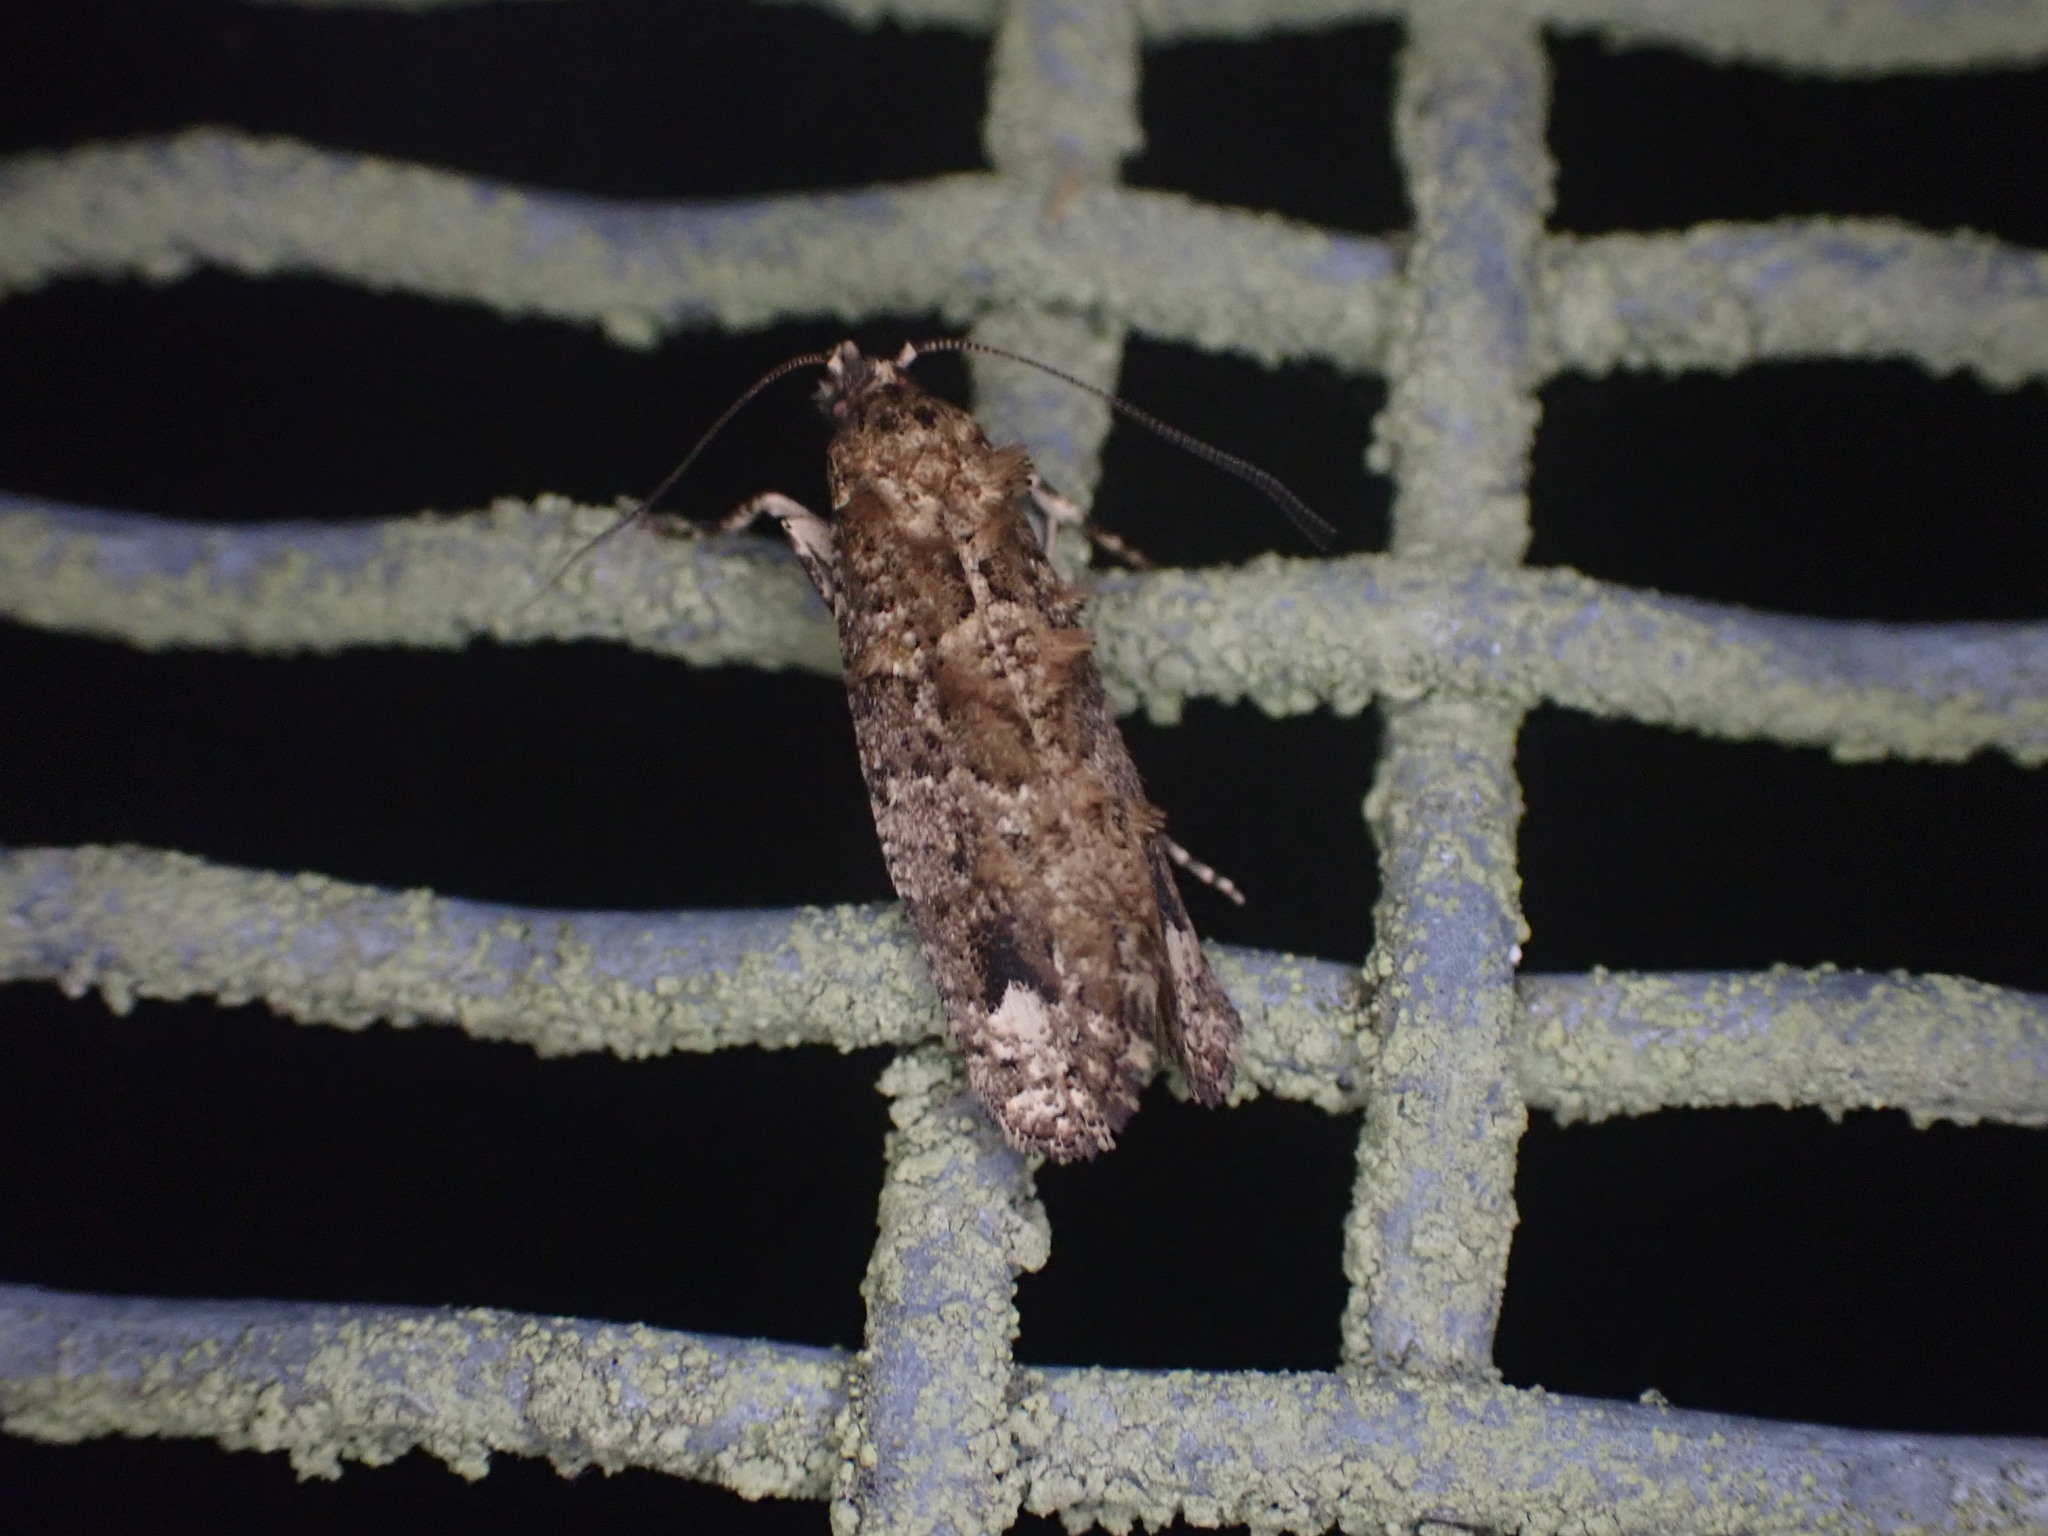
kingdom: Animalia
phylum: Arthropoda
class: Insecta
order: Lepidoptera
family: Tineidae
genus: Lysiphragma
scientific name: Lysiphragma epixyla
